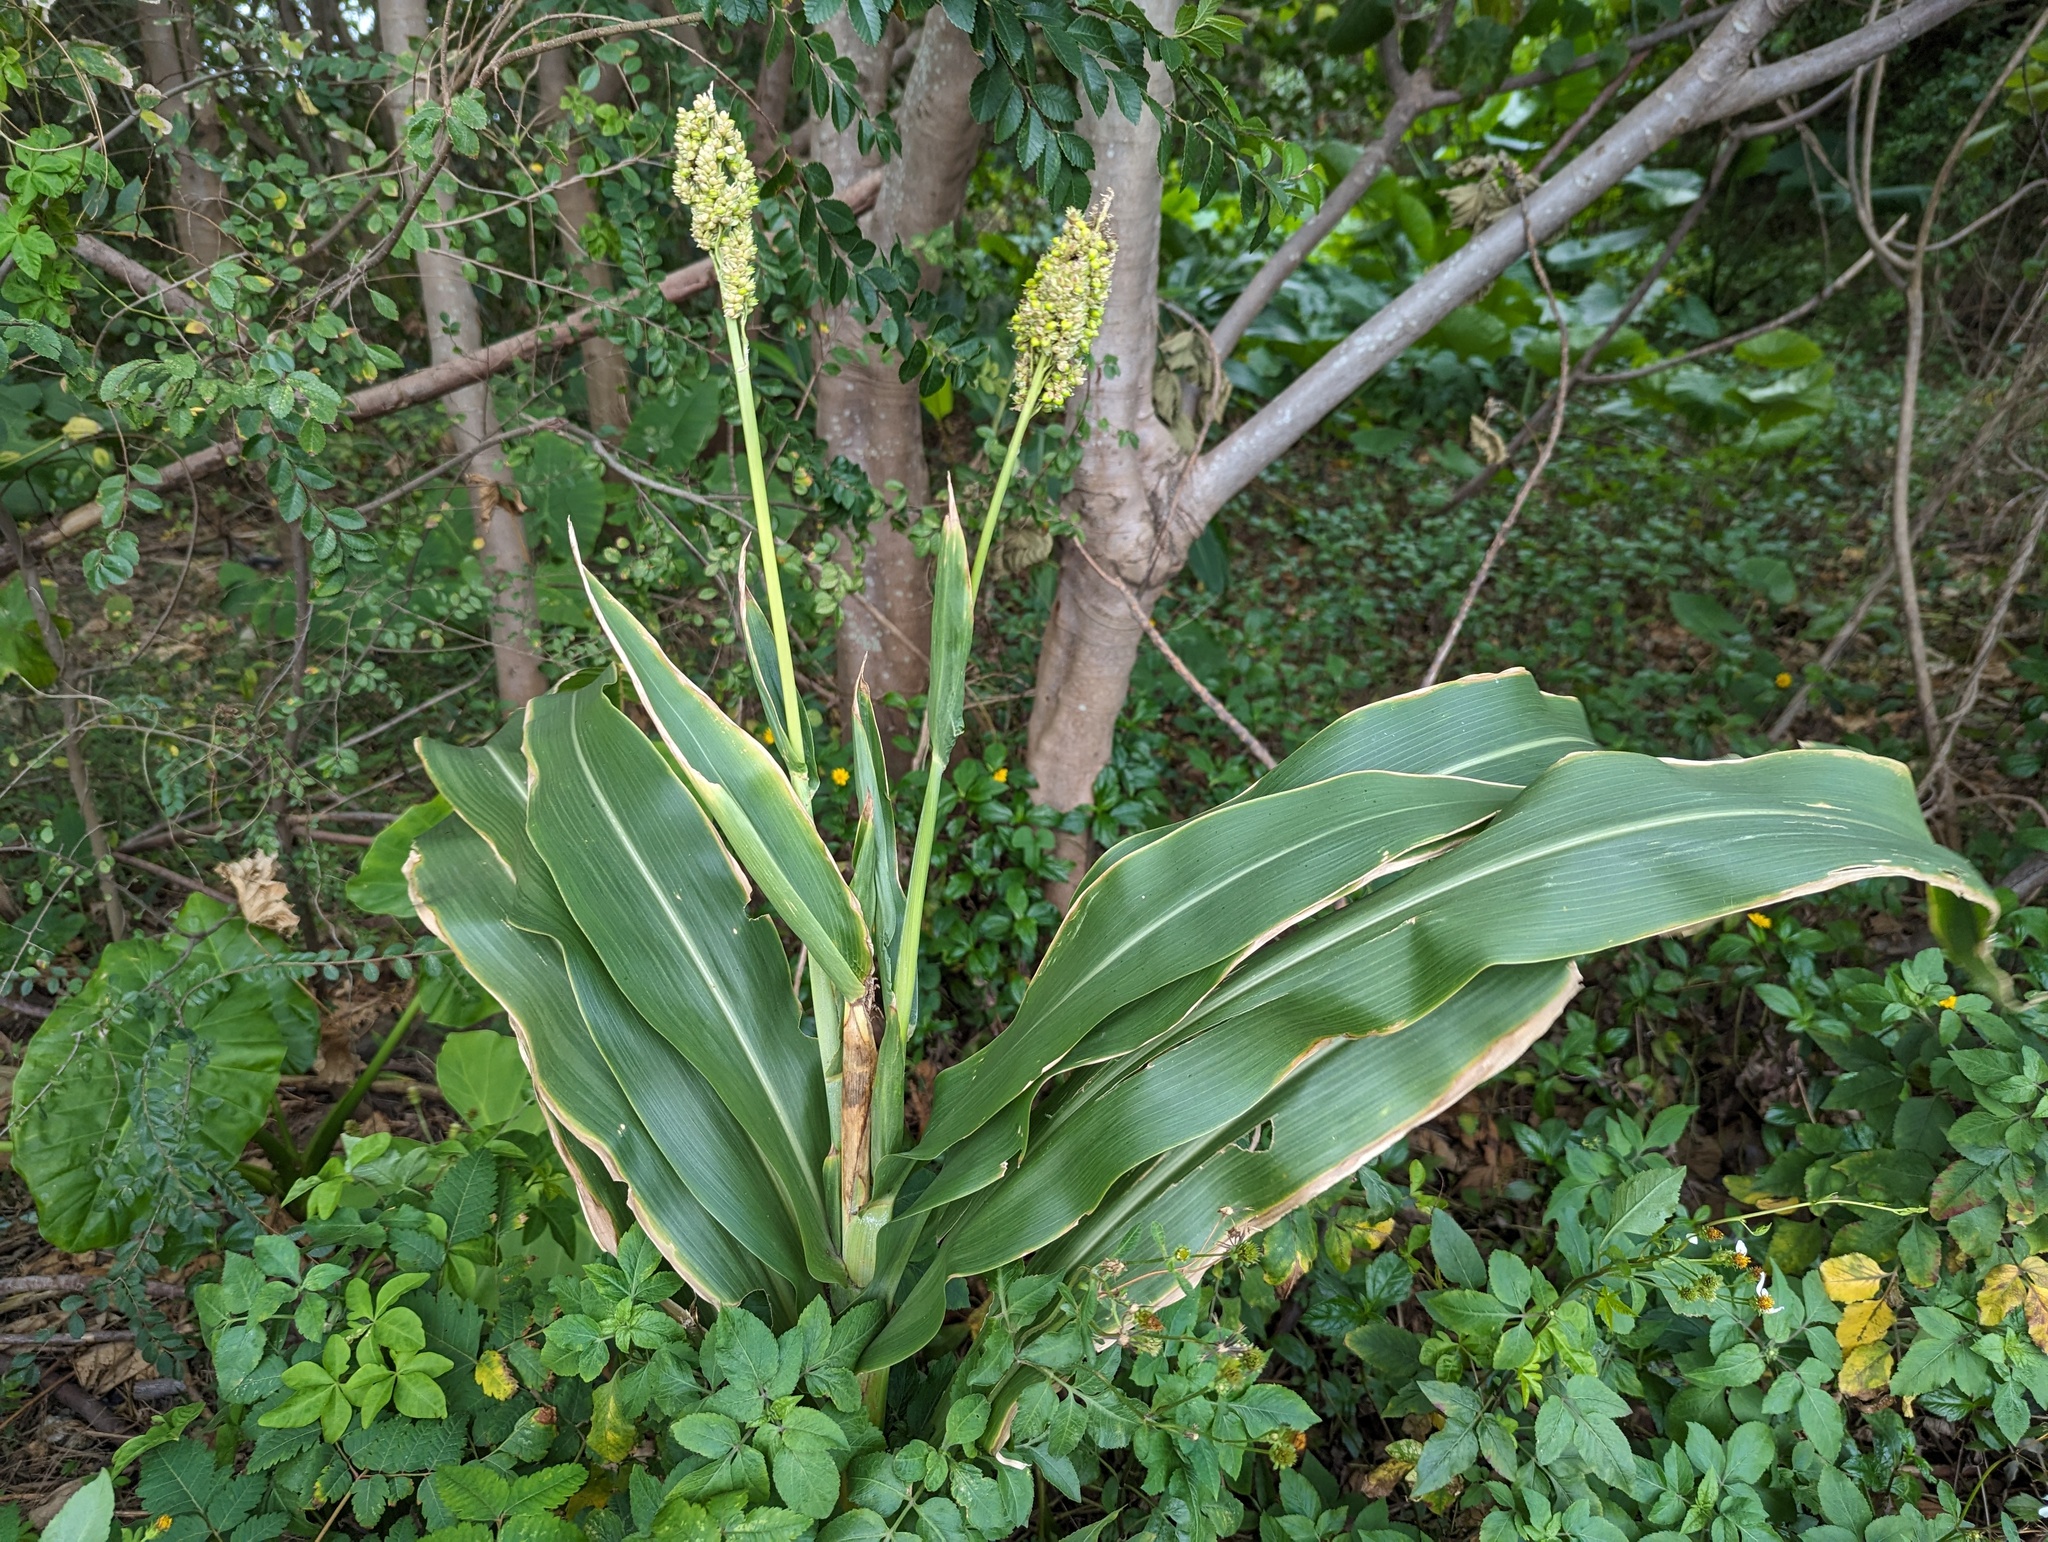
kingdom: Plantae
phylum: Tracheophyta
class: Liliopsida
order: Poales
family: Poaceae
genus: Sorghum
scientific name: Sorghum bicolor
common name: Sorghum
